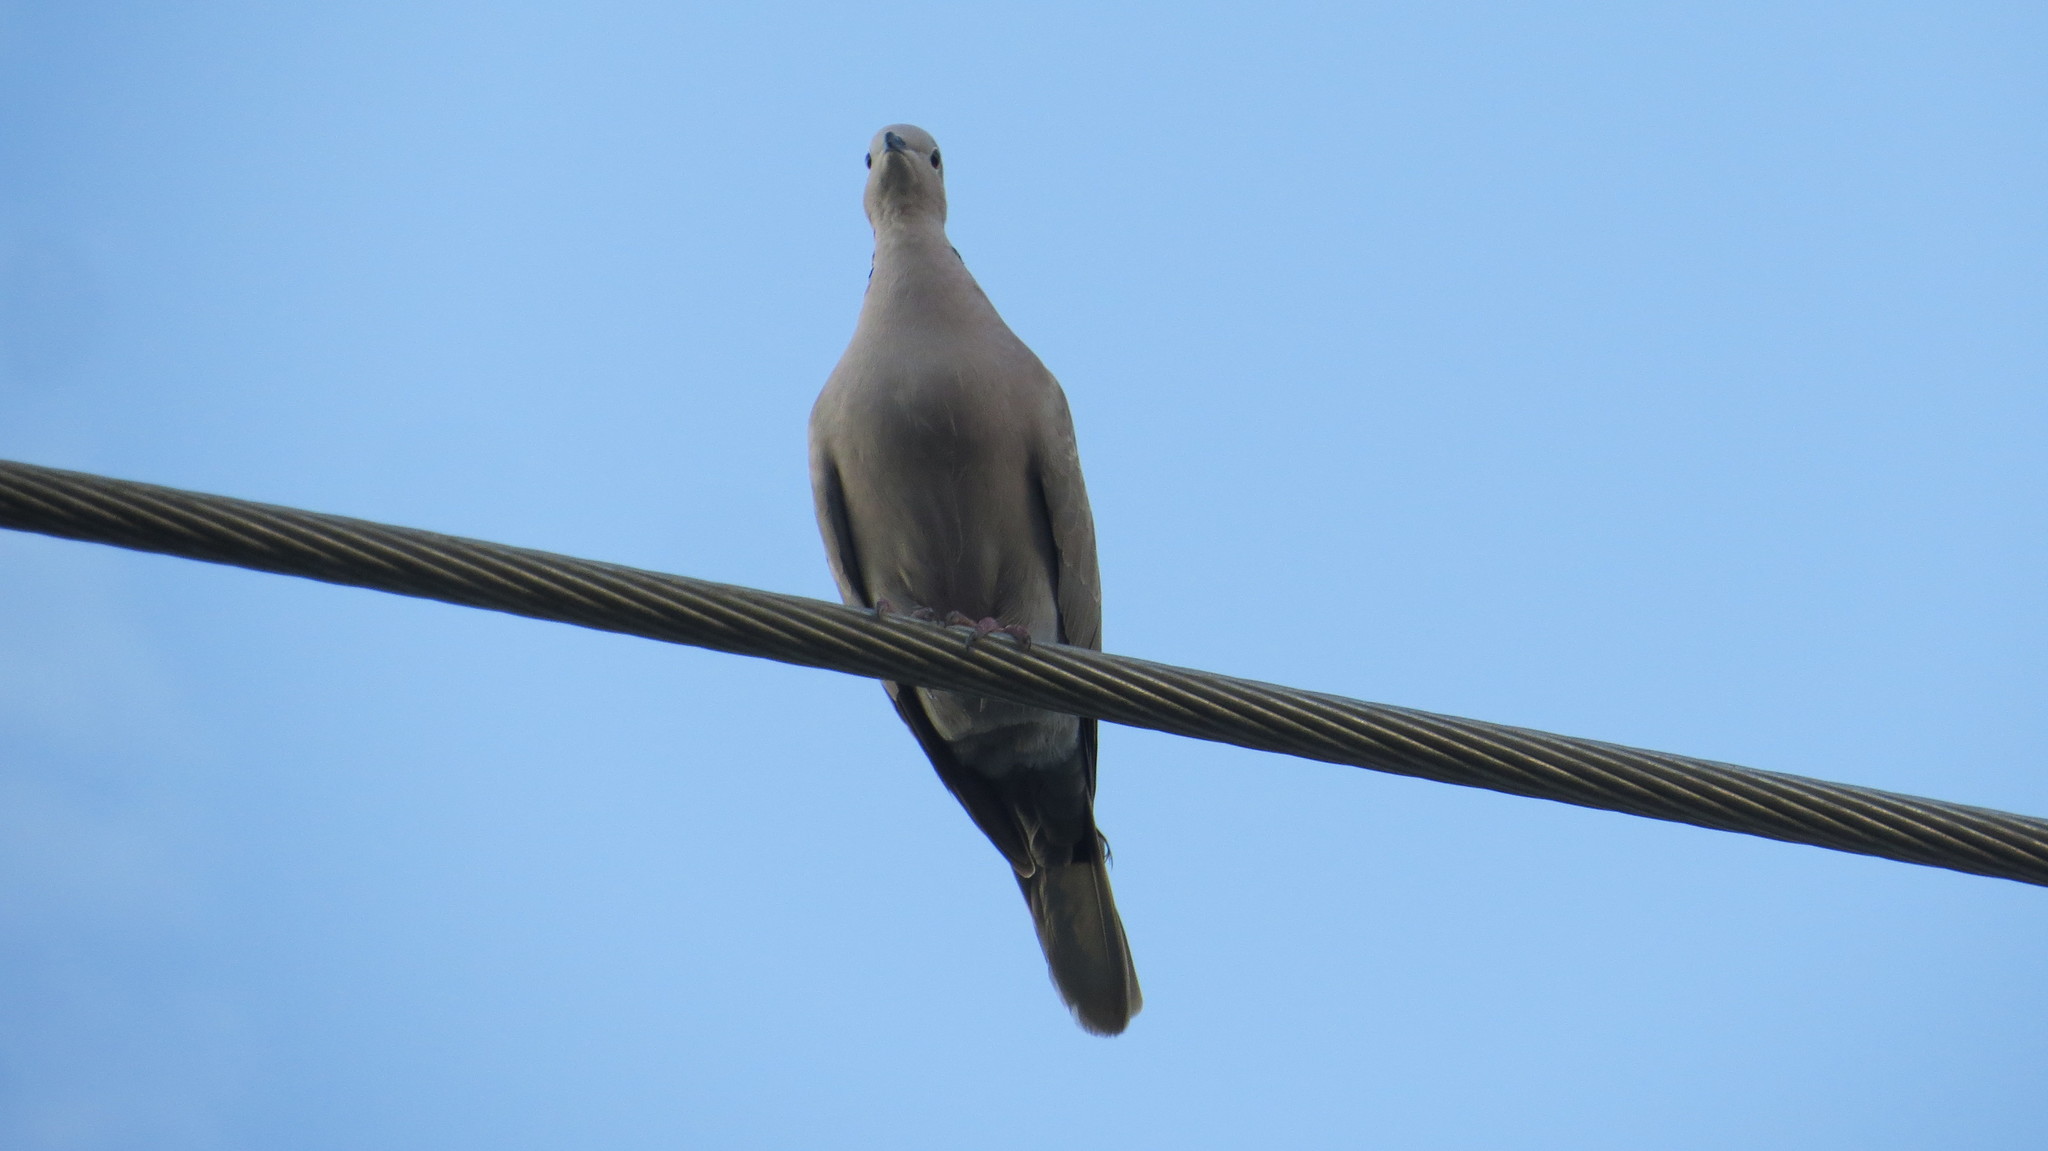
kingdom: Animalia
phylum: Chordata
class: Aves
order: Columbiformes
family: Columbidae
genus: Streptopelia
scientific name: Streptopelia decaocto
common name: Eurasian collared dove
